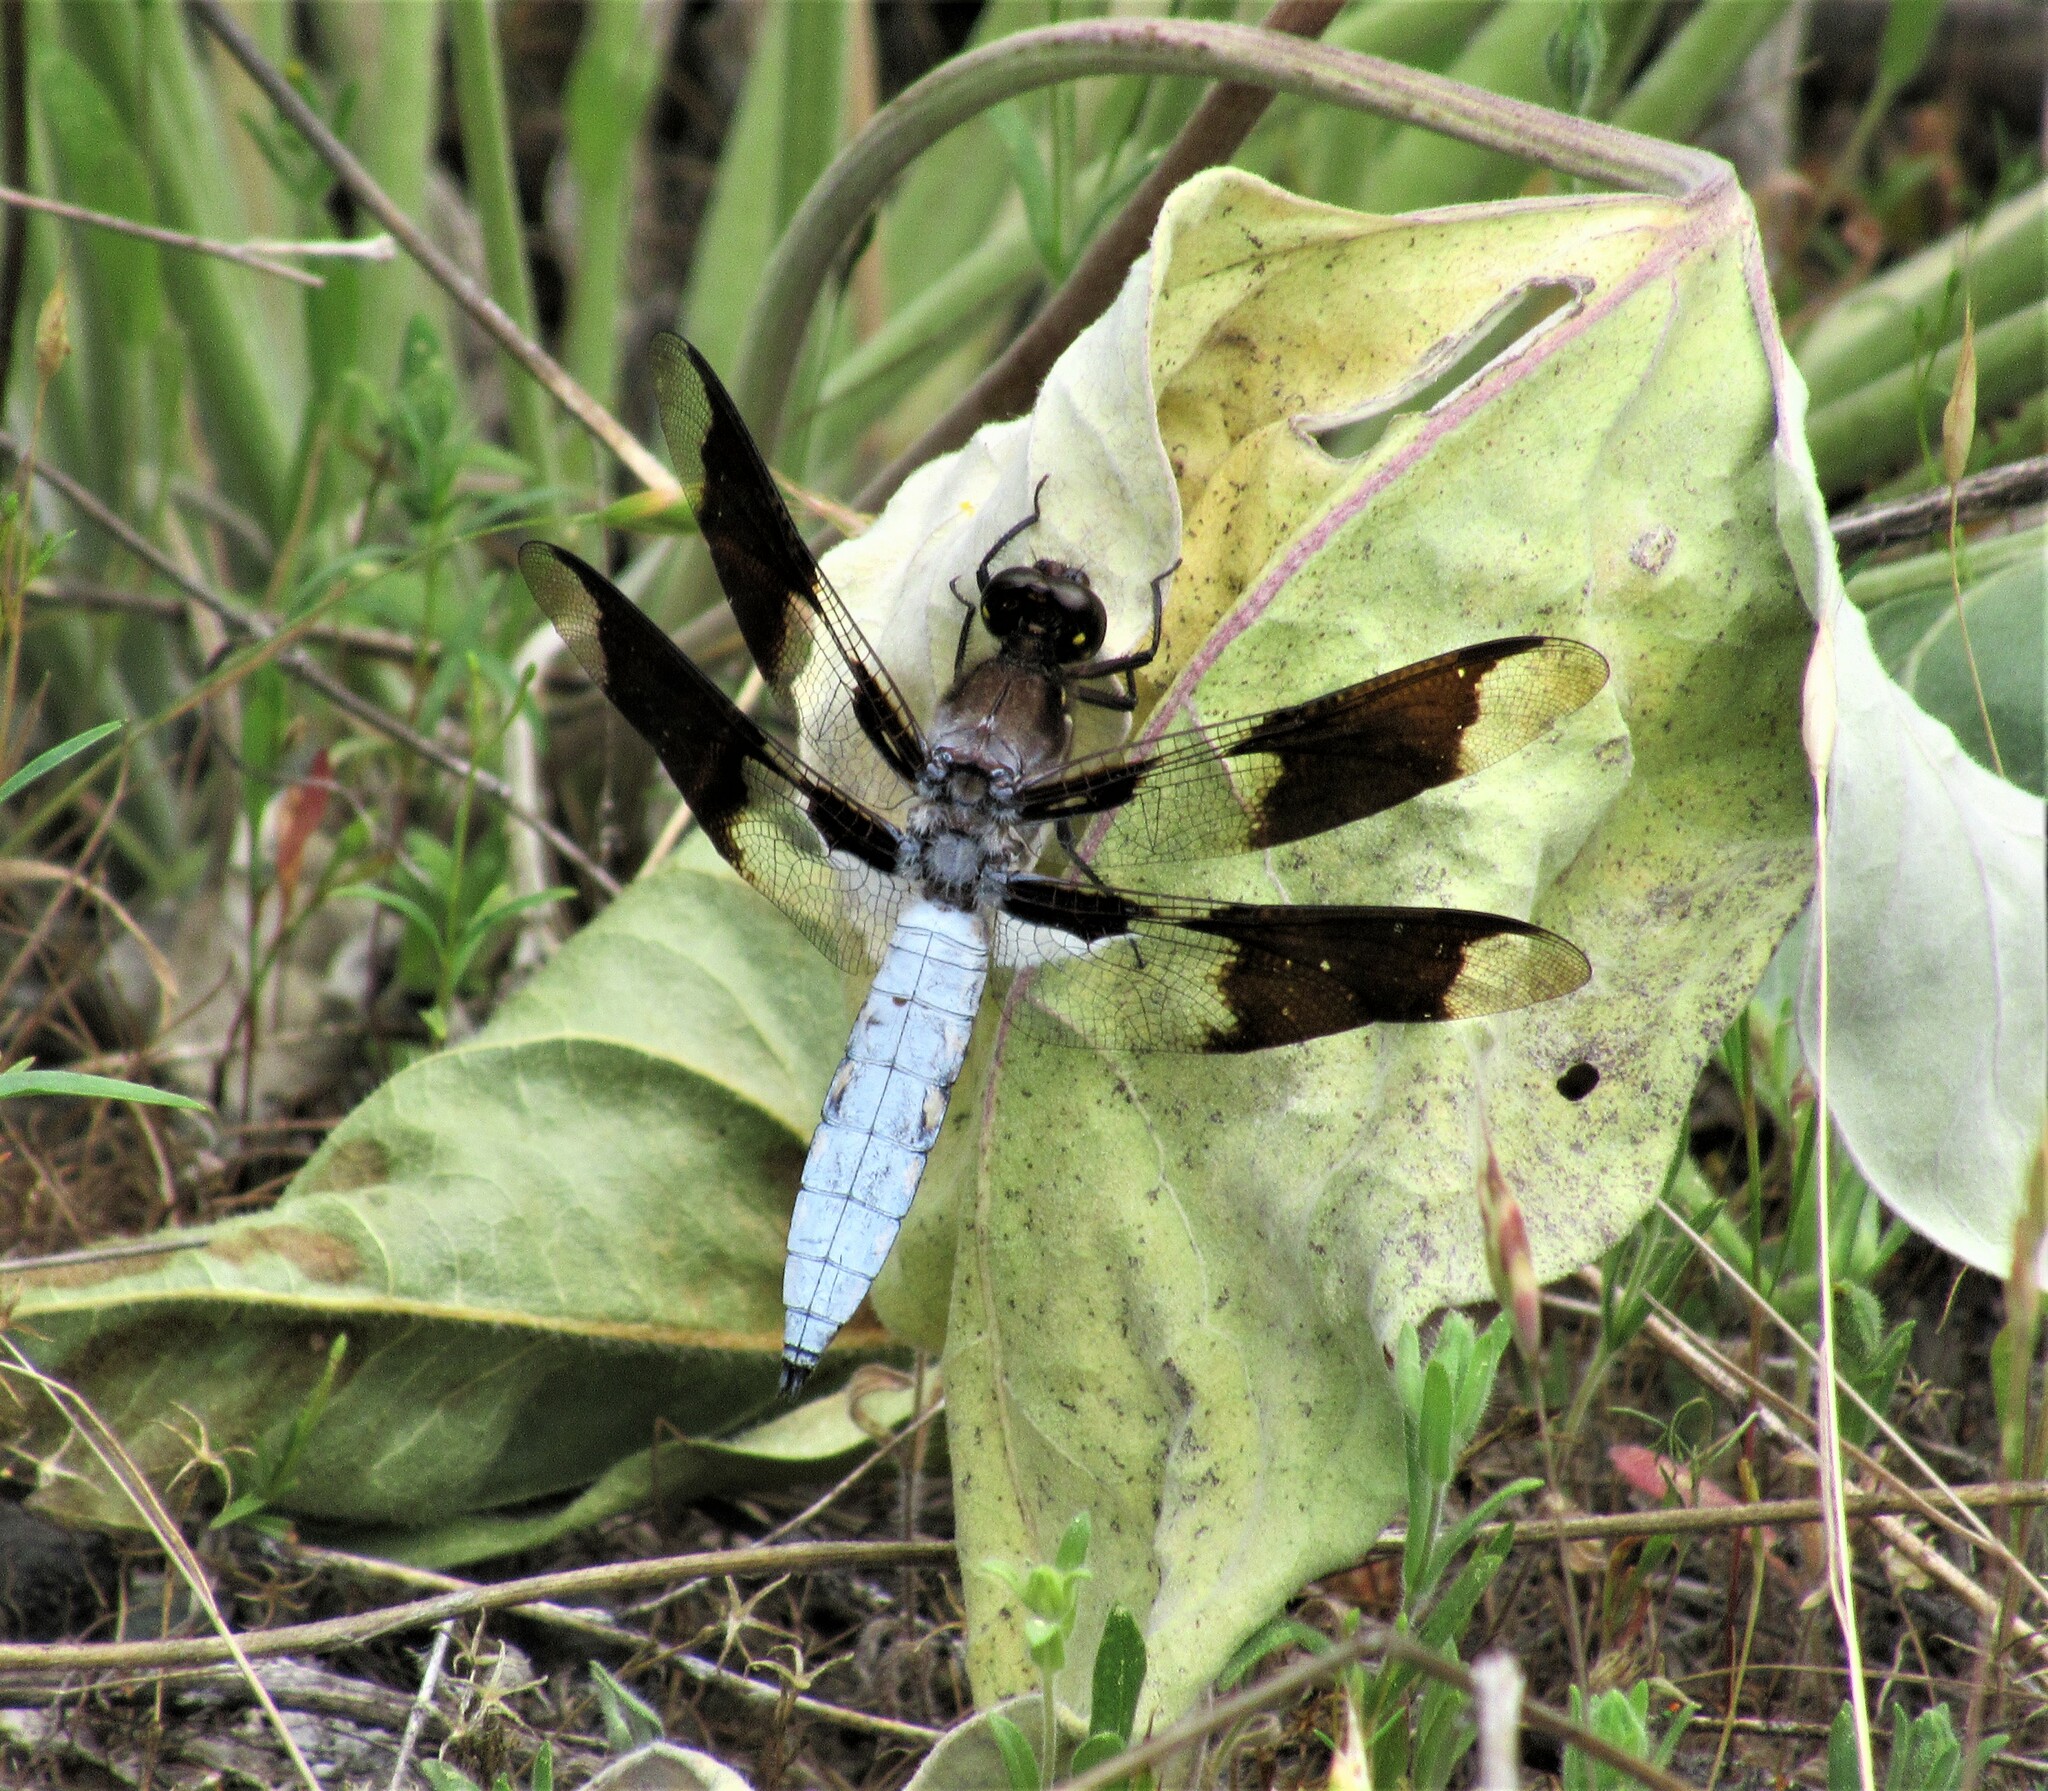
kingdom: Animalia
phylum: Arthropoda
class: Insecta
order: Odonata
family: Libellulidae
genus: Plathemis
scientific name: Plathemis lydia
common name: Common whitetail
